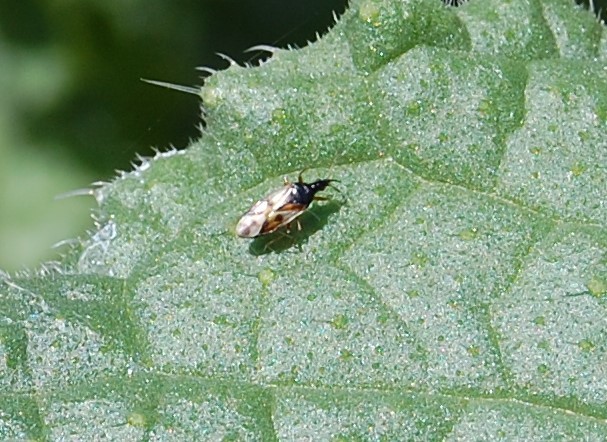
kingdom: Animalia
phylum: Arthropoda
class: Insecta
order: Hemiptera
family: Anthocoridae
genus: Anthocoris
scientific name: Anthocoris nemorum
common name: Minute pirate bug
